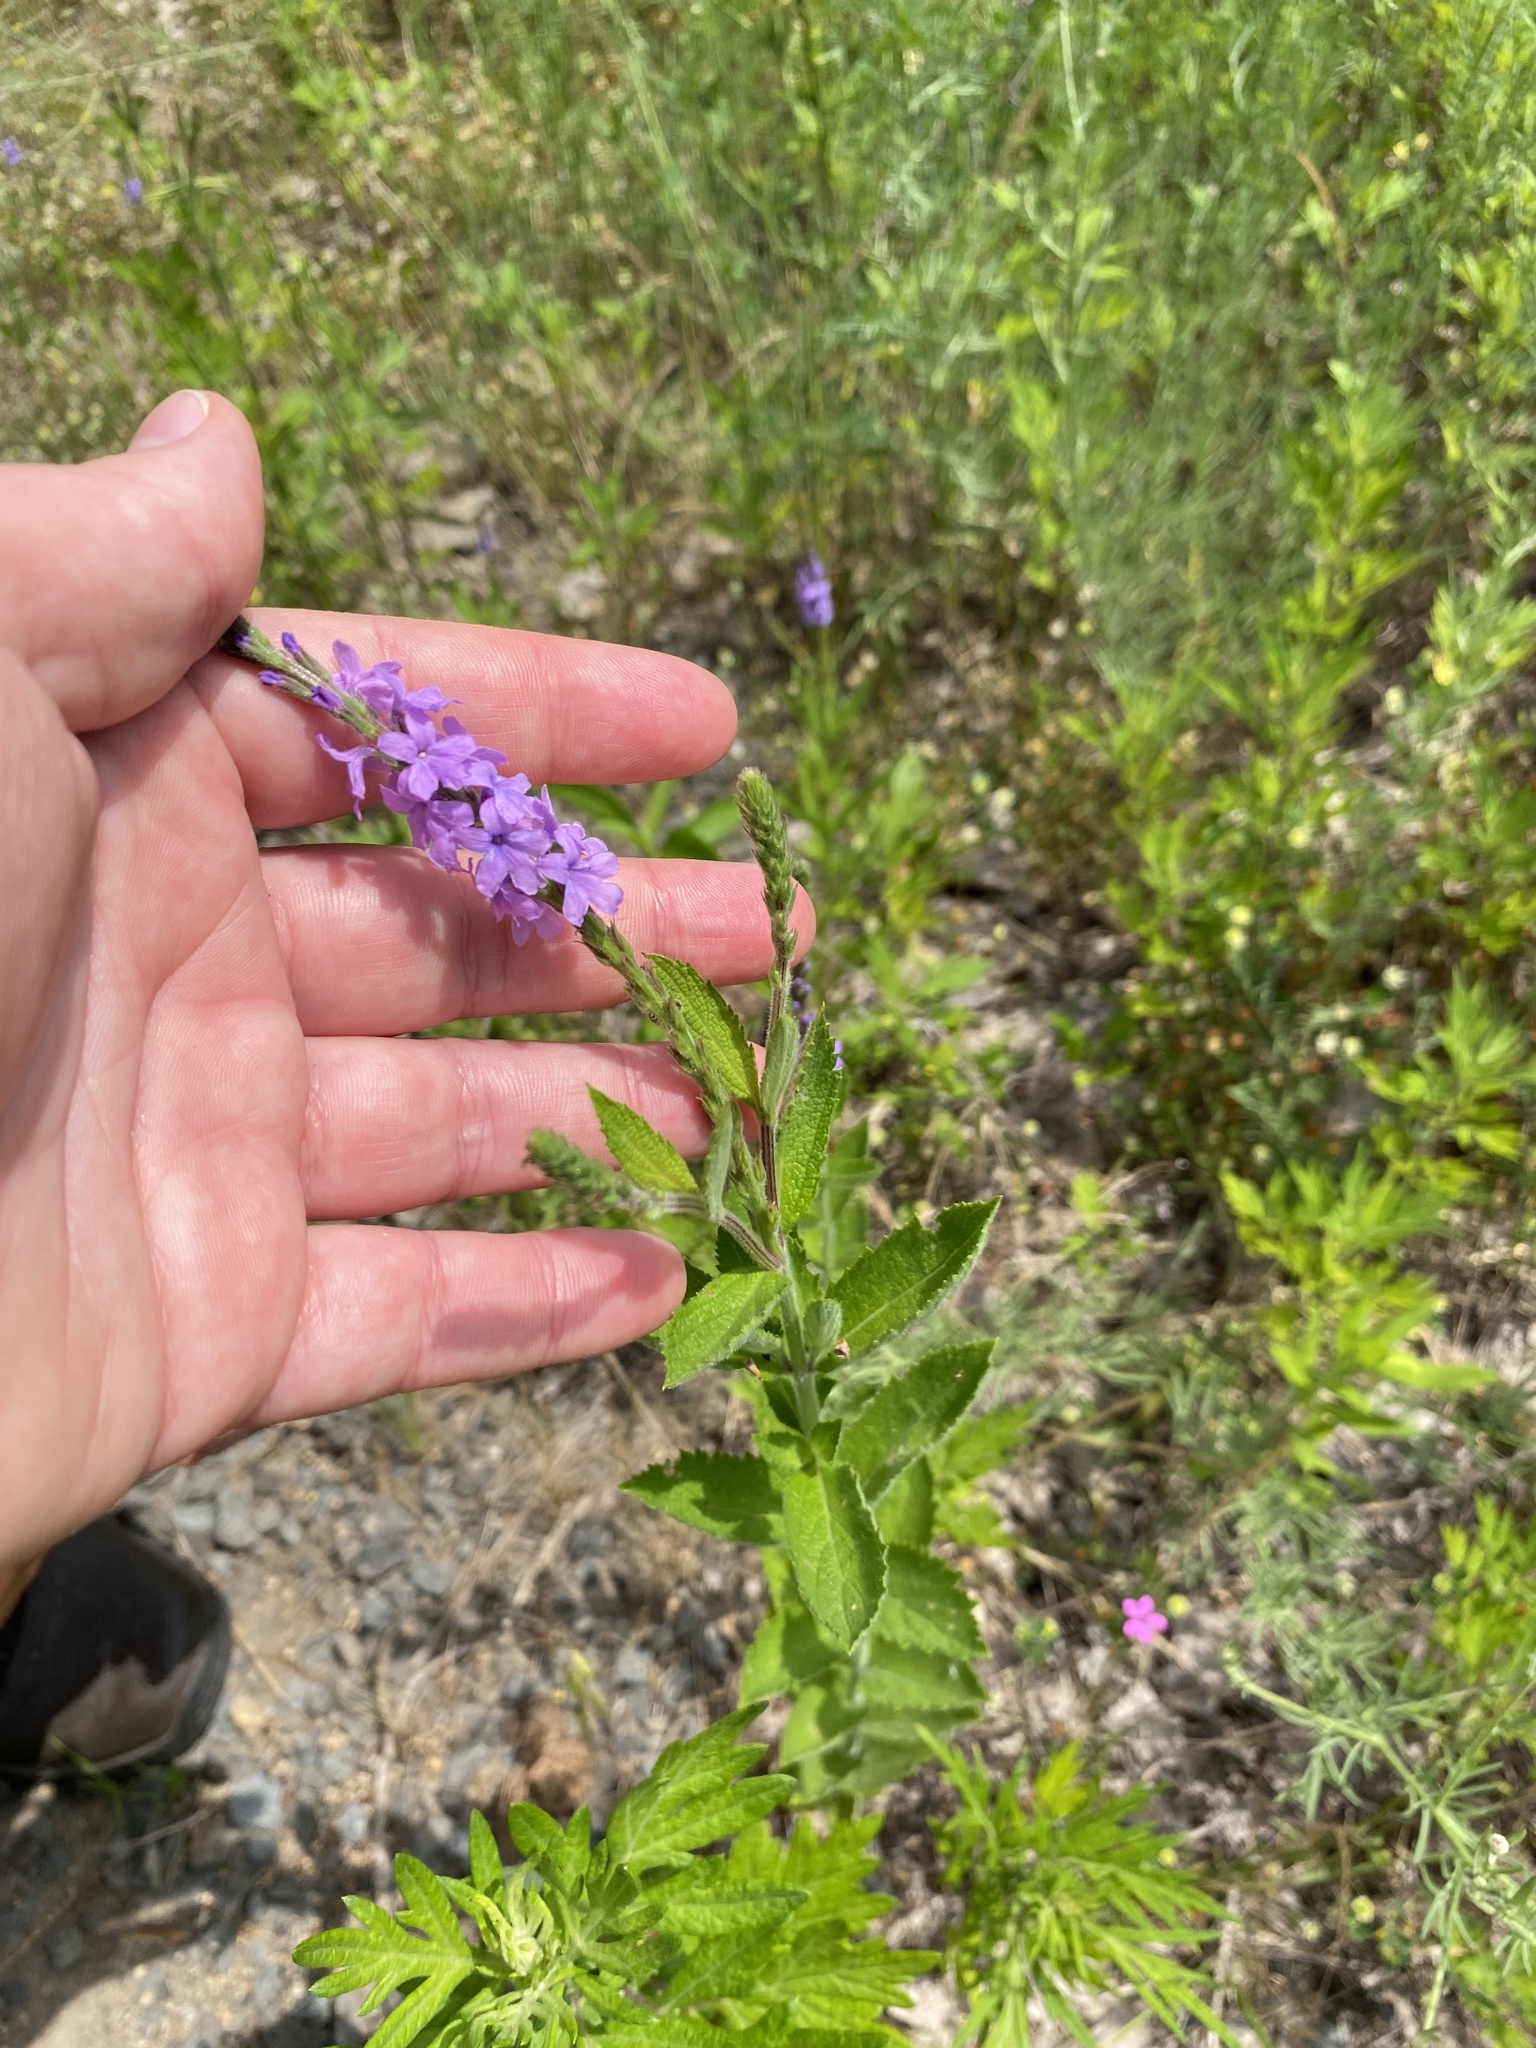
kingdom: Plantae
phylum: Tracheophyta
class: Magnoliopsida
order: Lamiales
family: Verbenaceae
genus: Verbena
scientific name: Verbena stricta
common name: Hoary vervain
